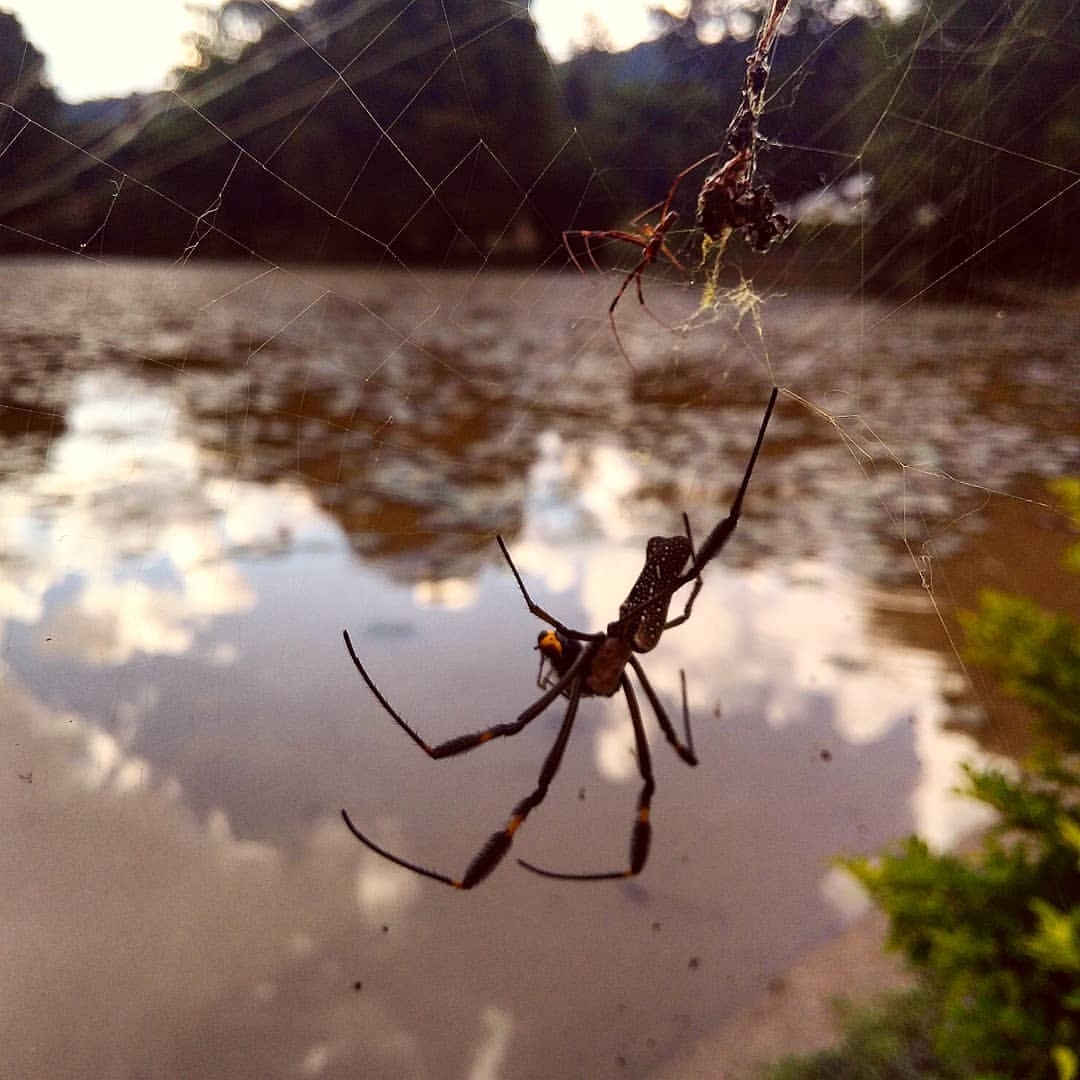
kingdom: Animalia
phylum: Arthropoda
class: Arachnida
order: Araneae
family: Araneidae
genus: Trichonephila
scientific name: Trichonephila clavipes
